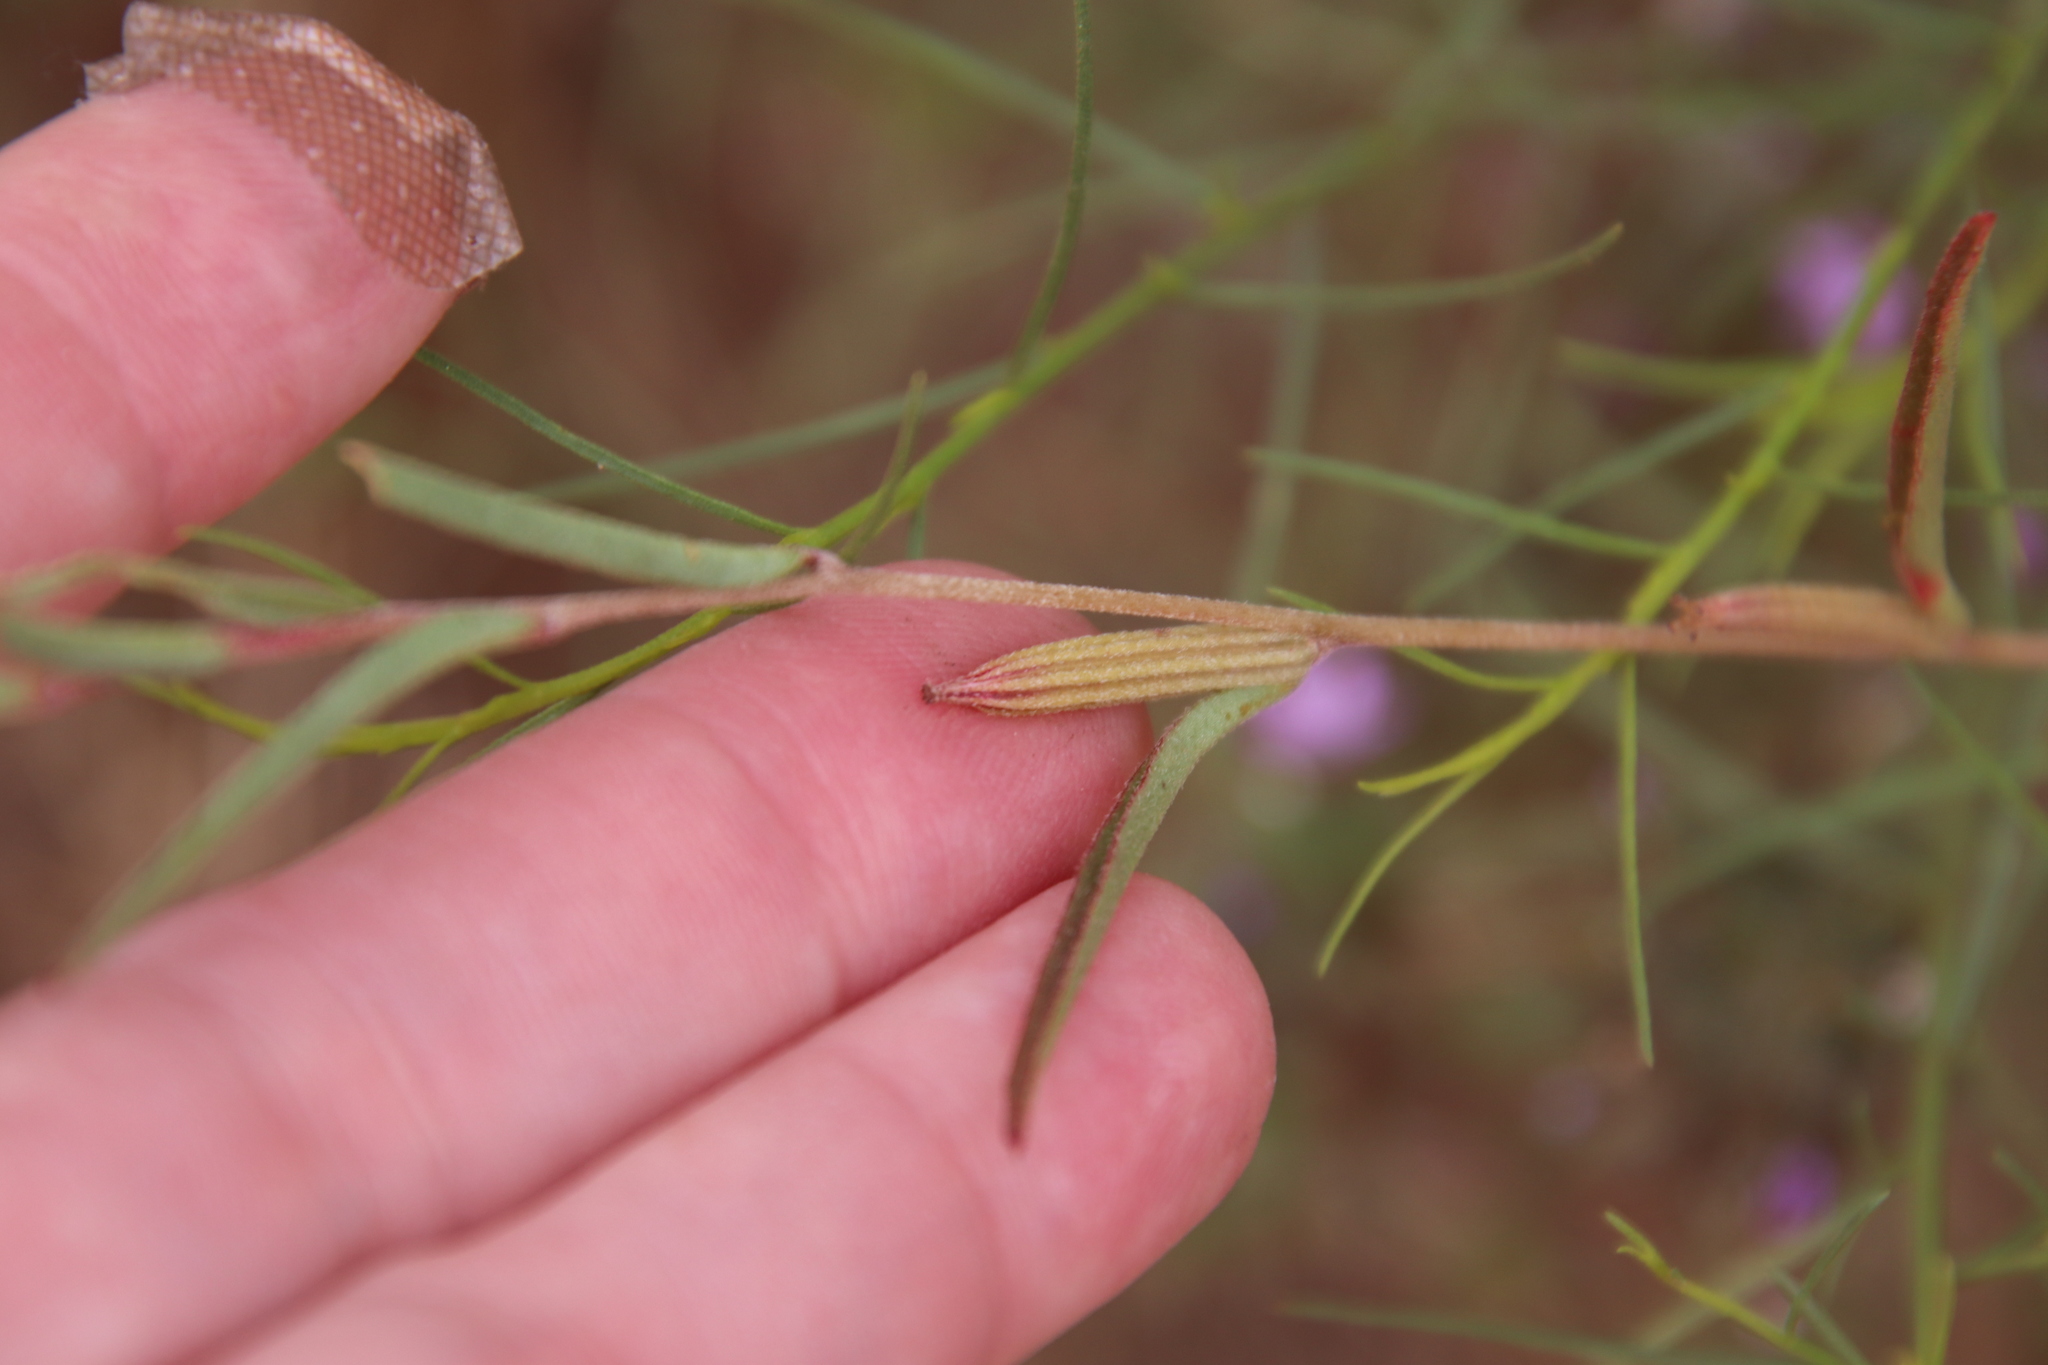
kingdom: Plantae
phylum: Tracheophyta
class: Magnoliopsida
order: Myrtales
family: Onagraceae
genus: Clarkia
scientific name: Clarkia purpurea
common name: Purple clarkia
